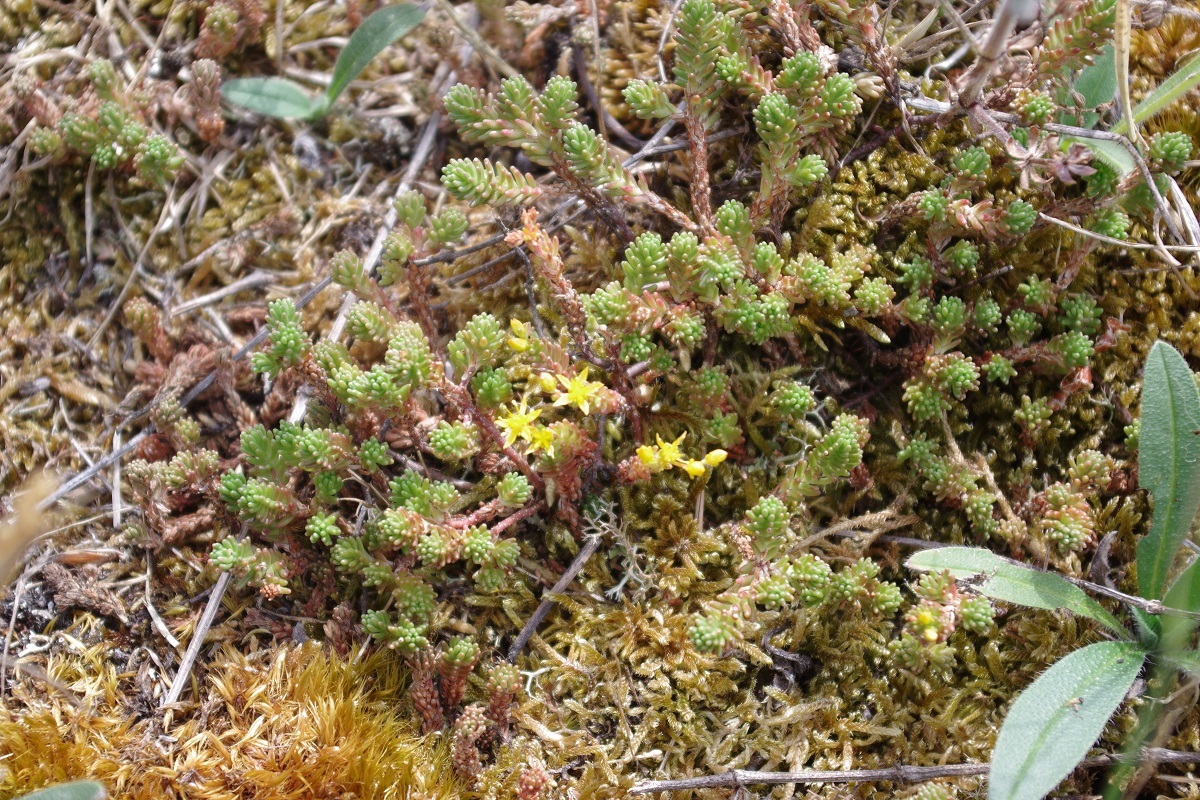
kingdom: Plantae
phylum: Tracheophyta
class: Magnoliopsida
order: Saxifragales
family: Crassulaceae
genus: Sedum
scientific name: Sedum sexangulare
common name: Tasteless stonecrop
